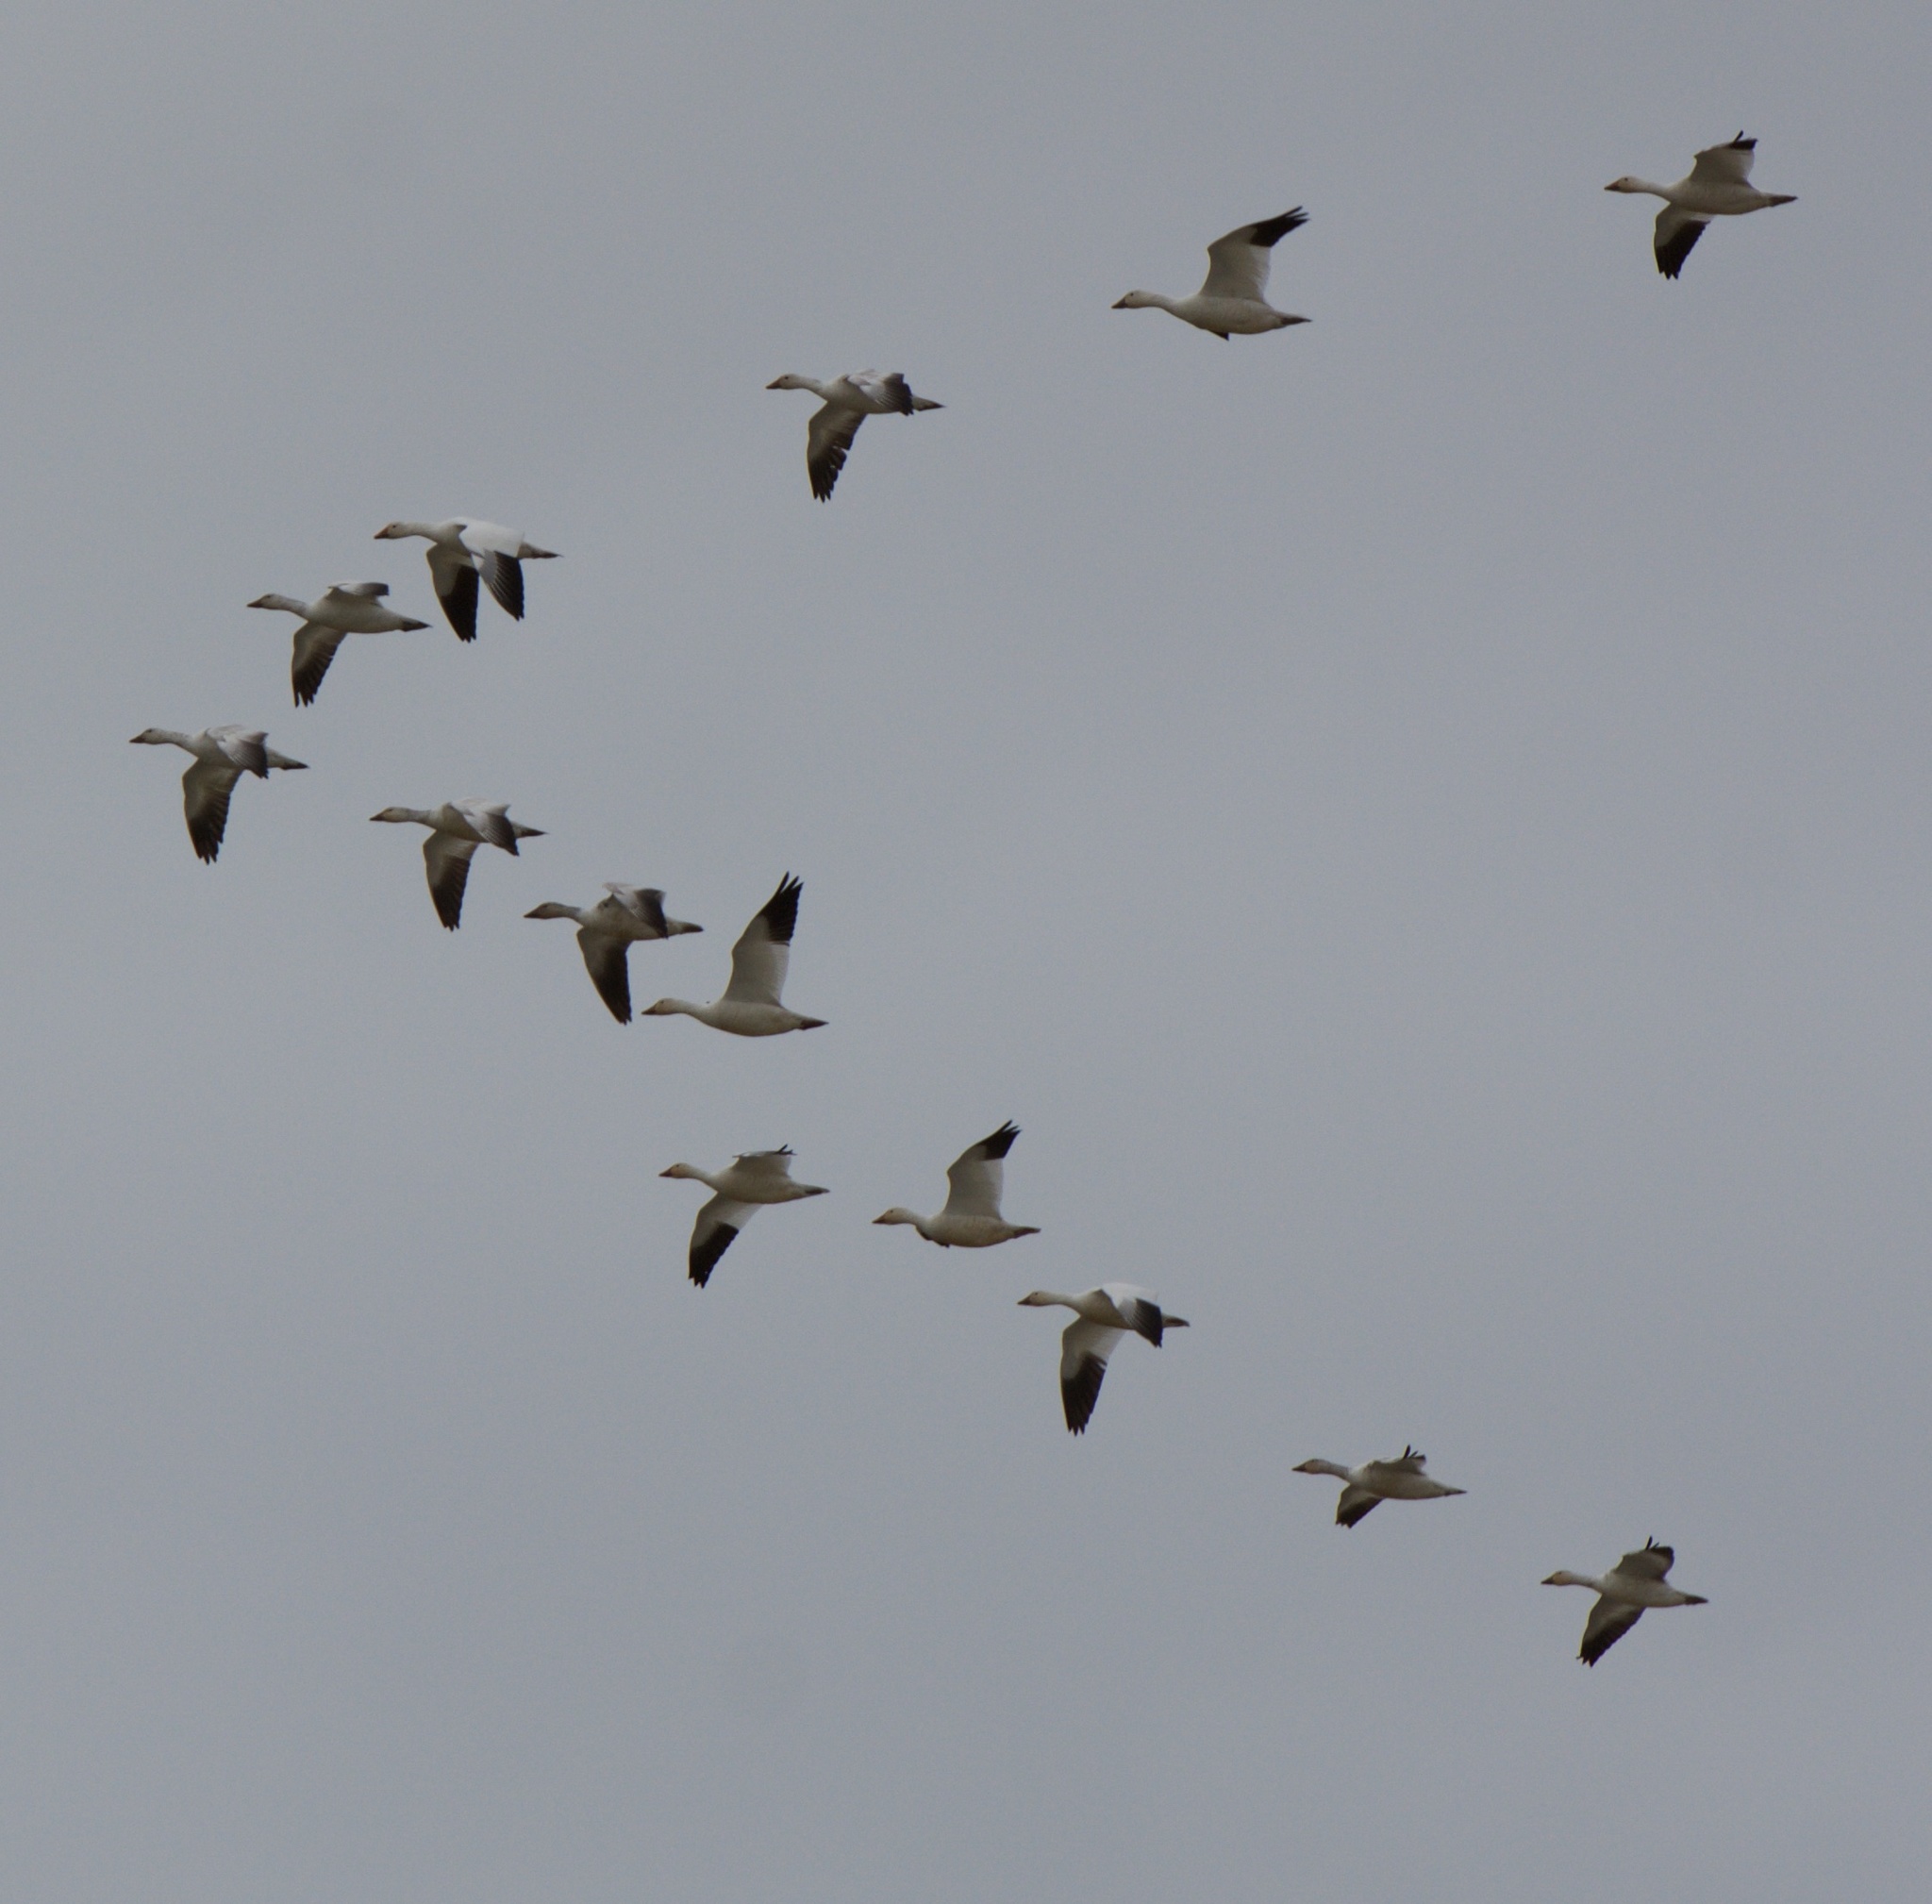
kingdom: Animalia
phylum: Chordata
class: Aves
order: Anseriformes
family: Anatidae
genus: Anser
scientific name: Anser caerulescens
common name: Snow goose
